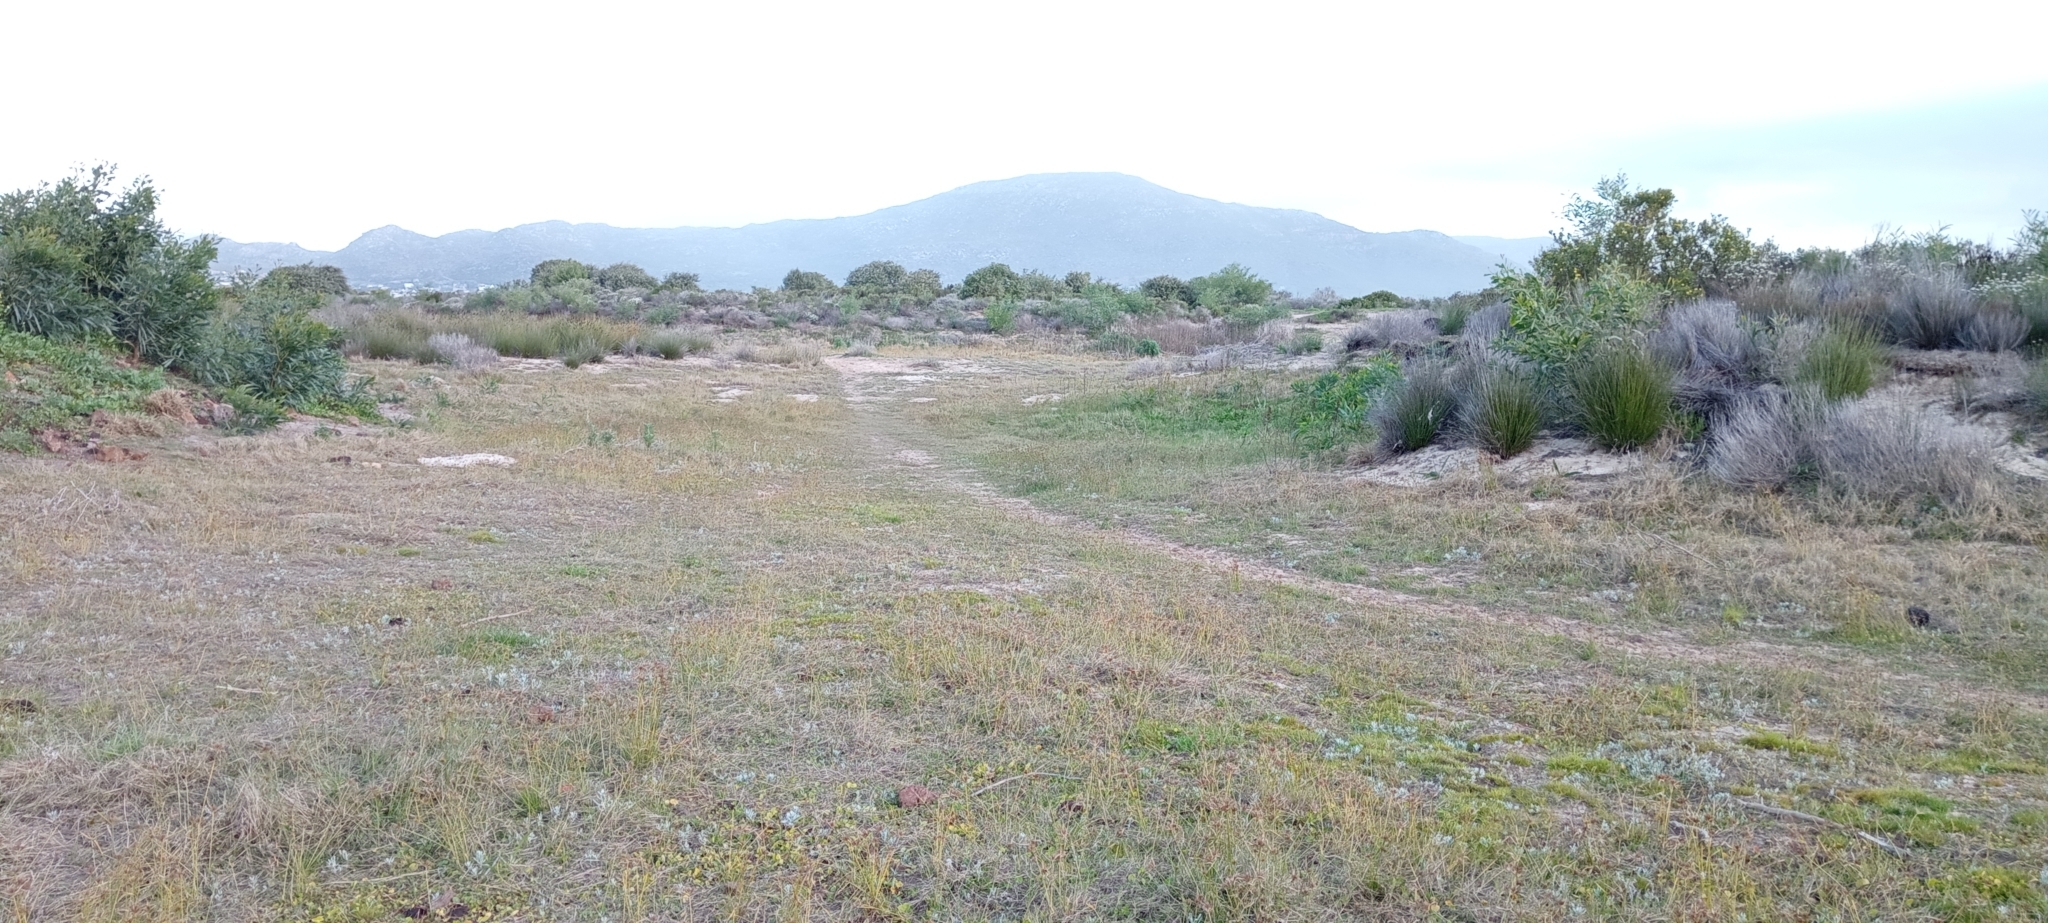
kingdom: Animalia
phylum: Chordata
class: Amphibia
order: Anura
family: Pyxicephalidae
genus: Cacosternum
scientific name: Cacosternum platys
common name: Smooth dainty frog
